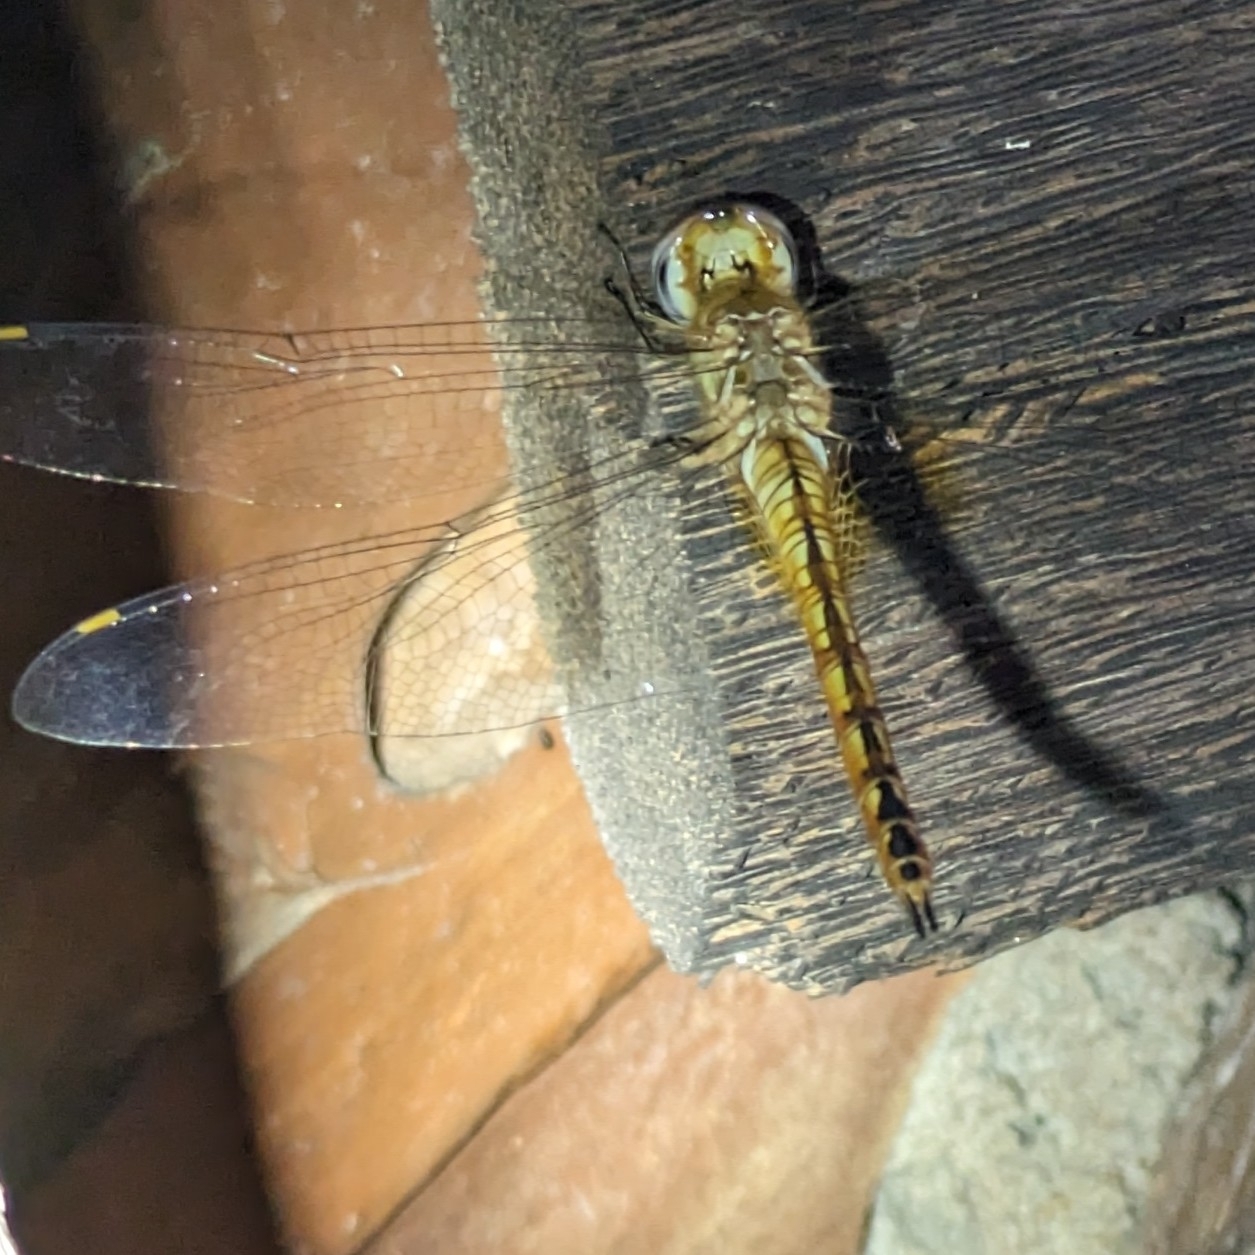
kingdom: Animalia
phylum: Arthropoda
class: Insecta
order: Odonata
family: Libellulidae
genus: Pantala
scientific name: Pantala flavescens
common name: Wandering glider
